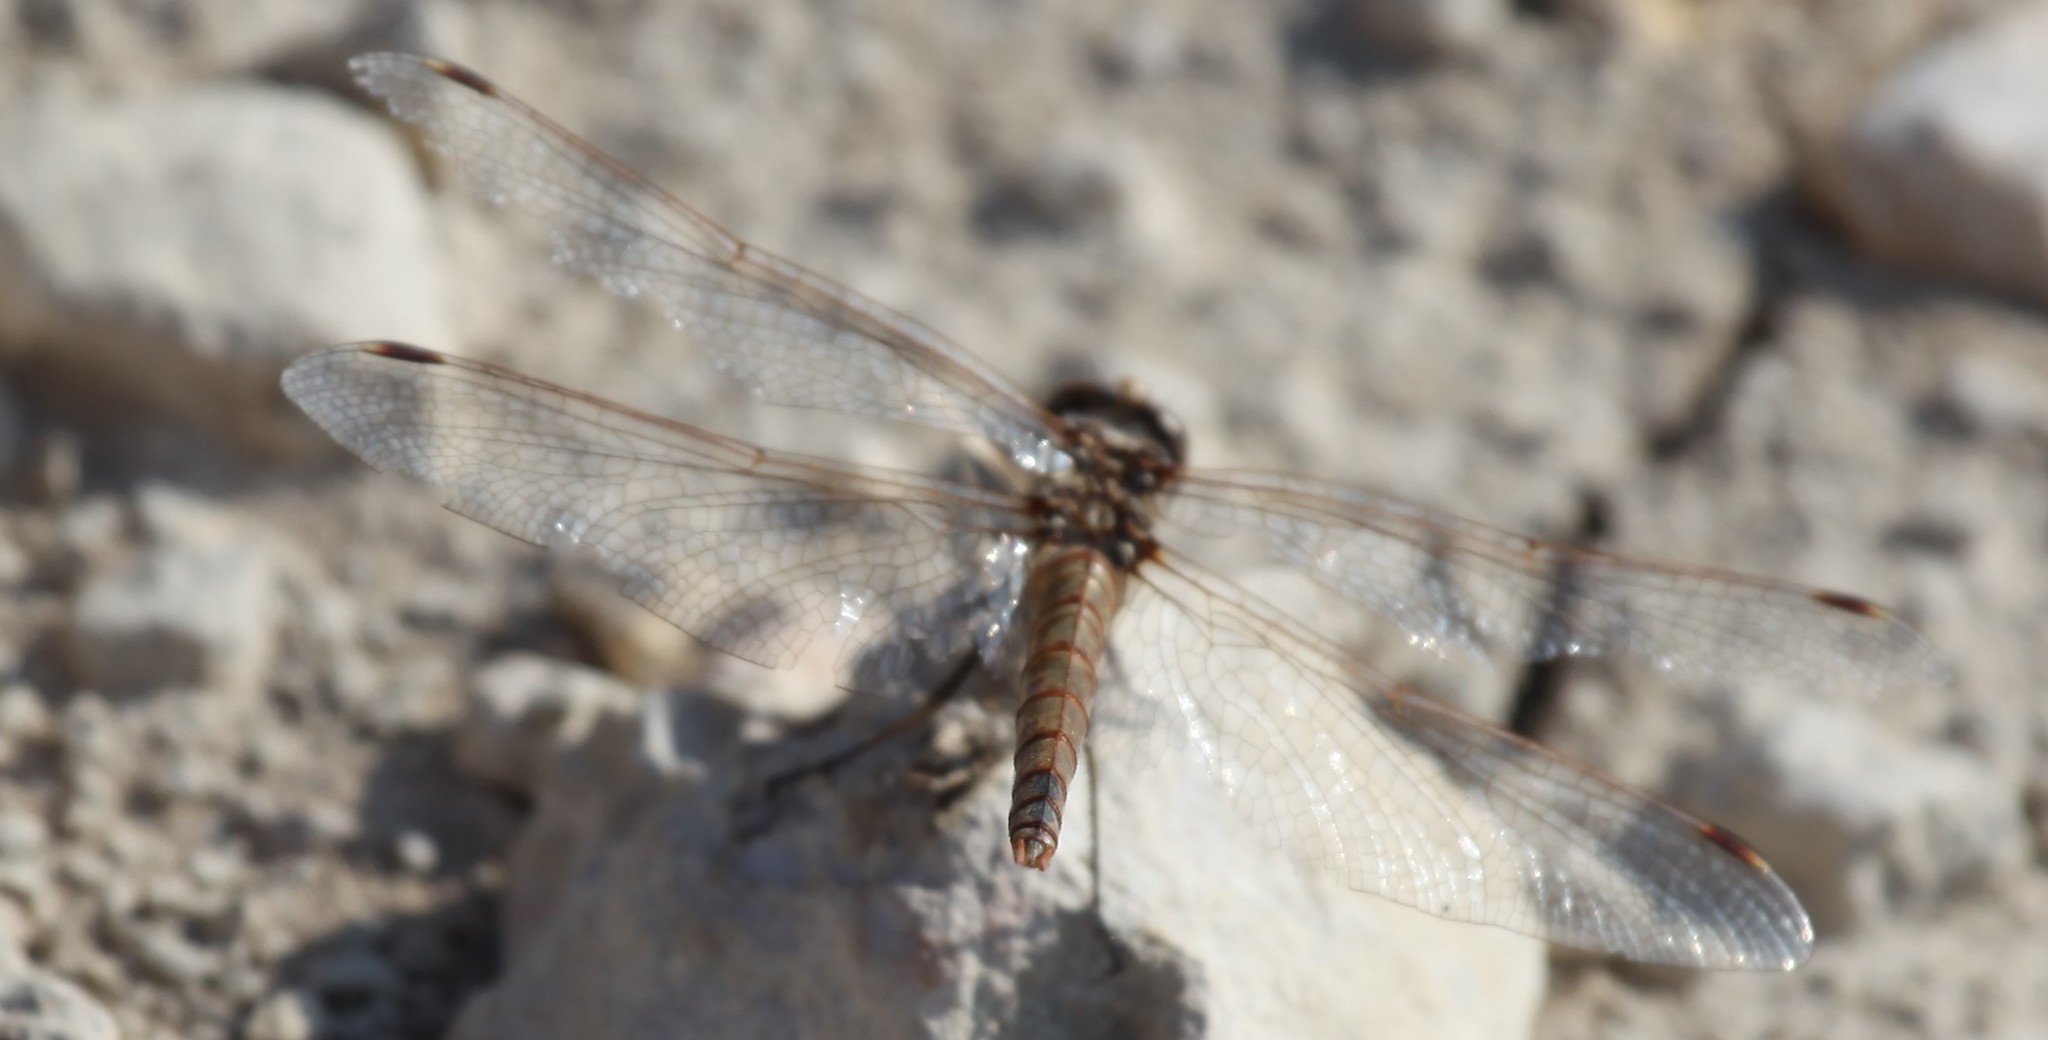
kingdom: Animalia
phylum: Arthropoda
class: Insecta
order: Odonata
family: Libellulidae
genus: Sympetrum
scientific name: Sympetrum corruptum
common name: Variegated meadowhawk
